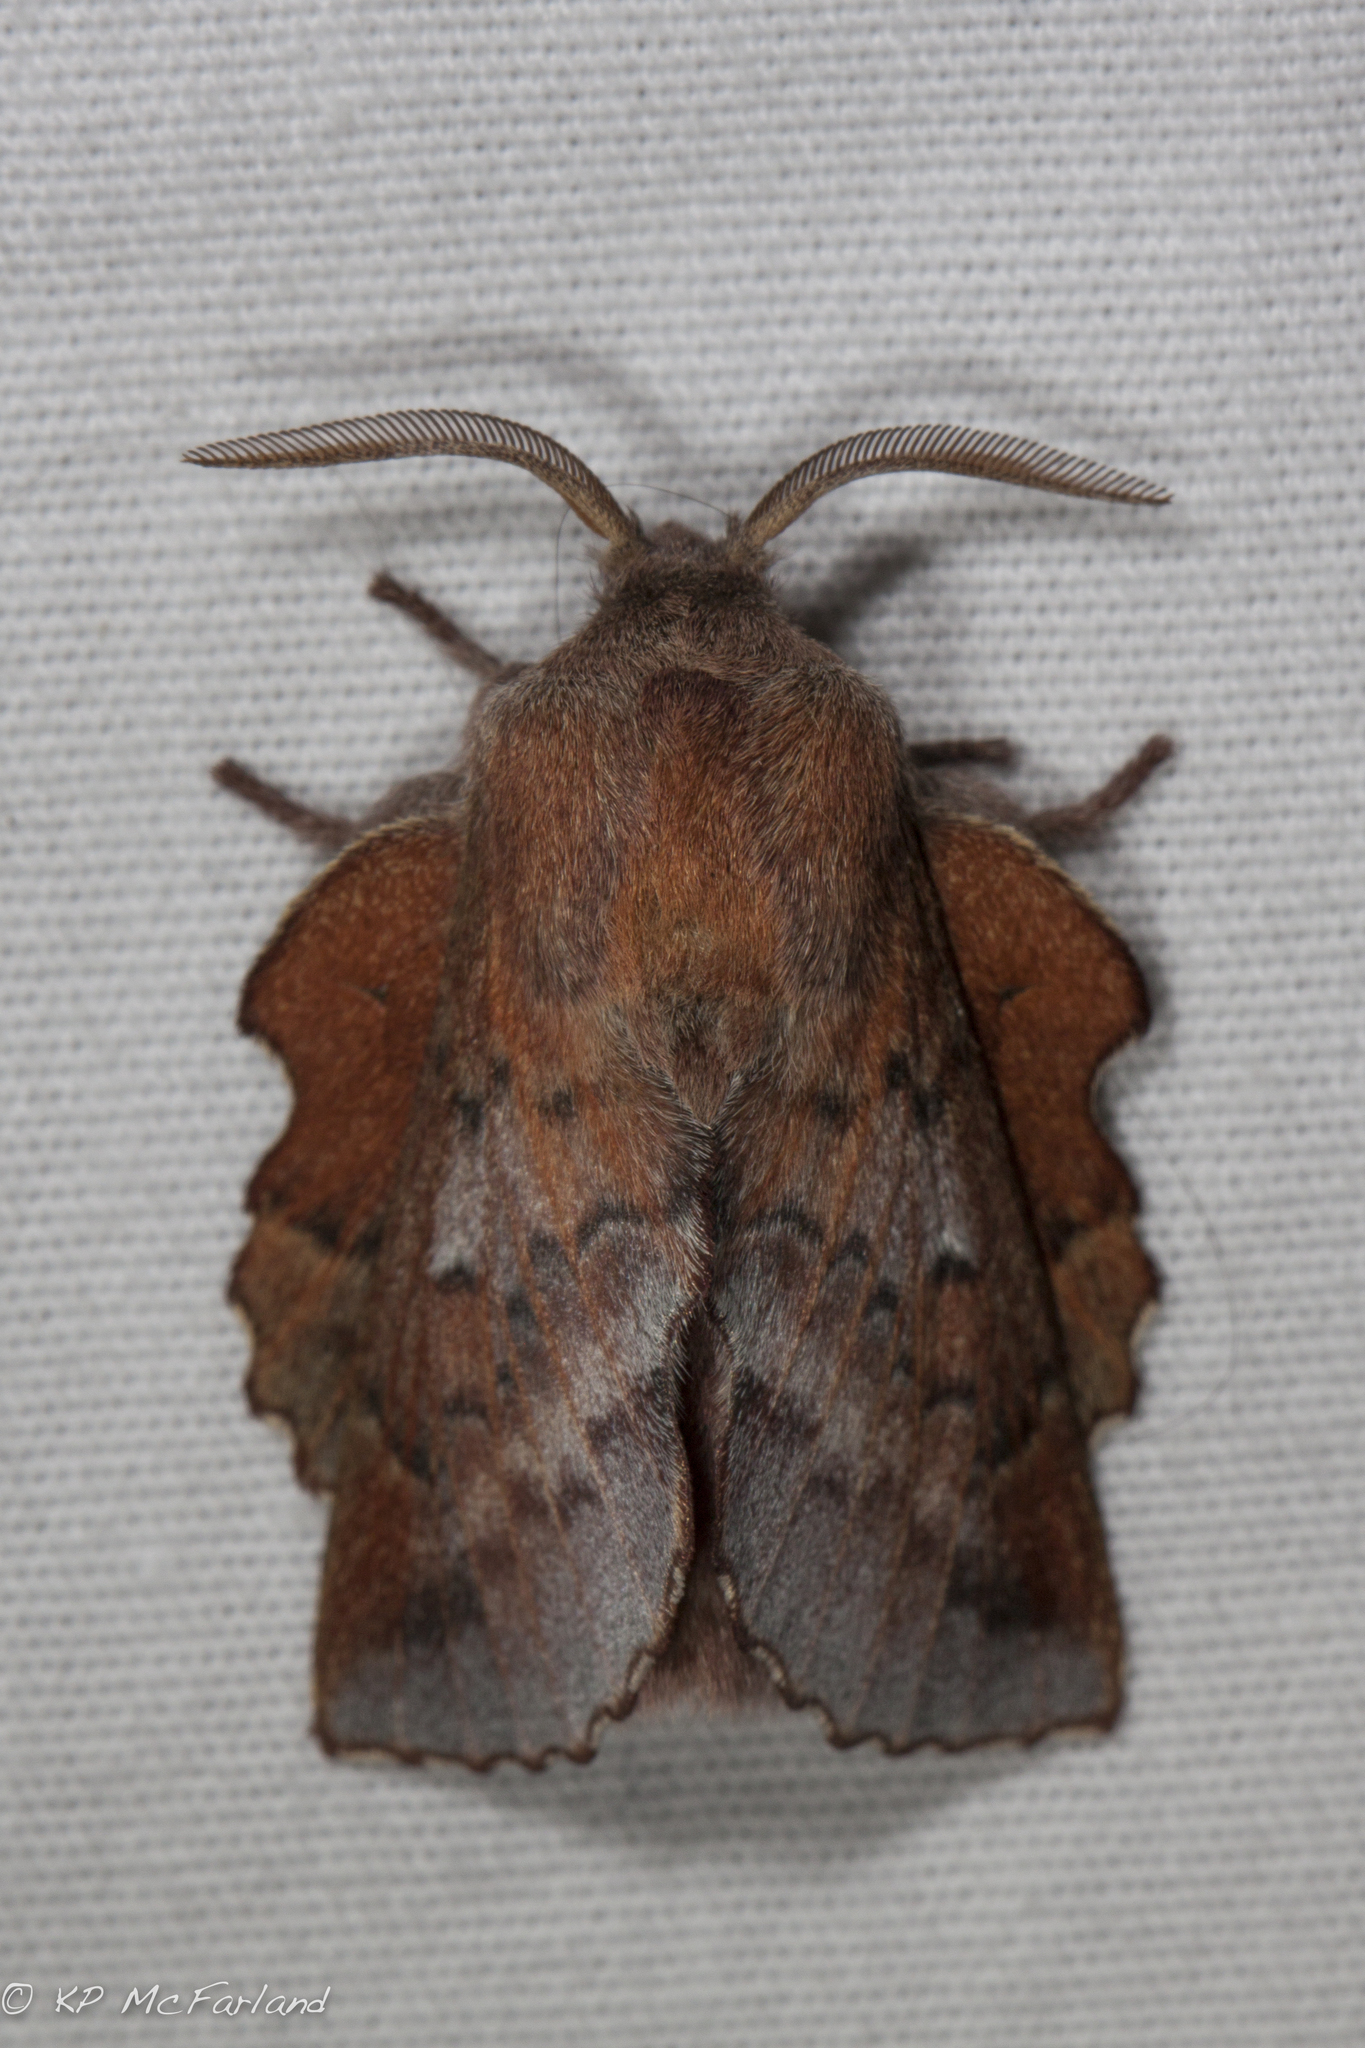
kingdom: Animalia
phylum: Arthropoda
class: Insecta
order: Lepidoptera
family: Lasiocampidae
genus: Phyllodesma
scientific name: Phyllodesma americana
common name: American lappet moth
